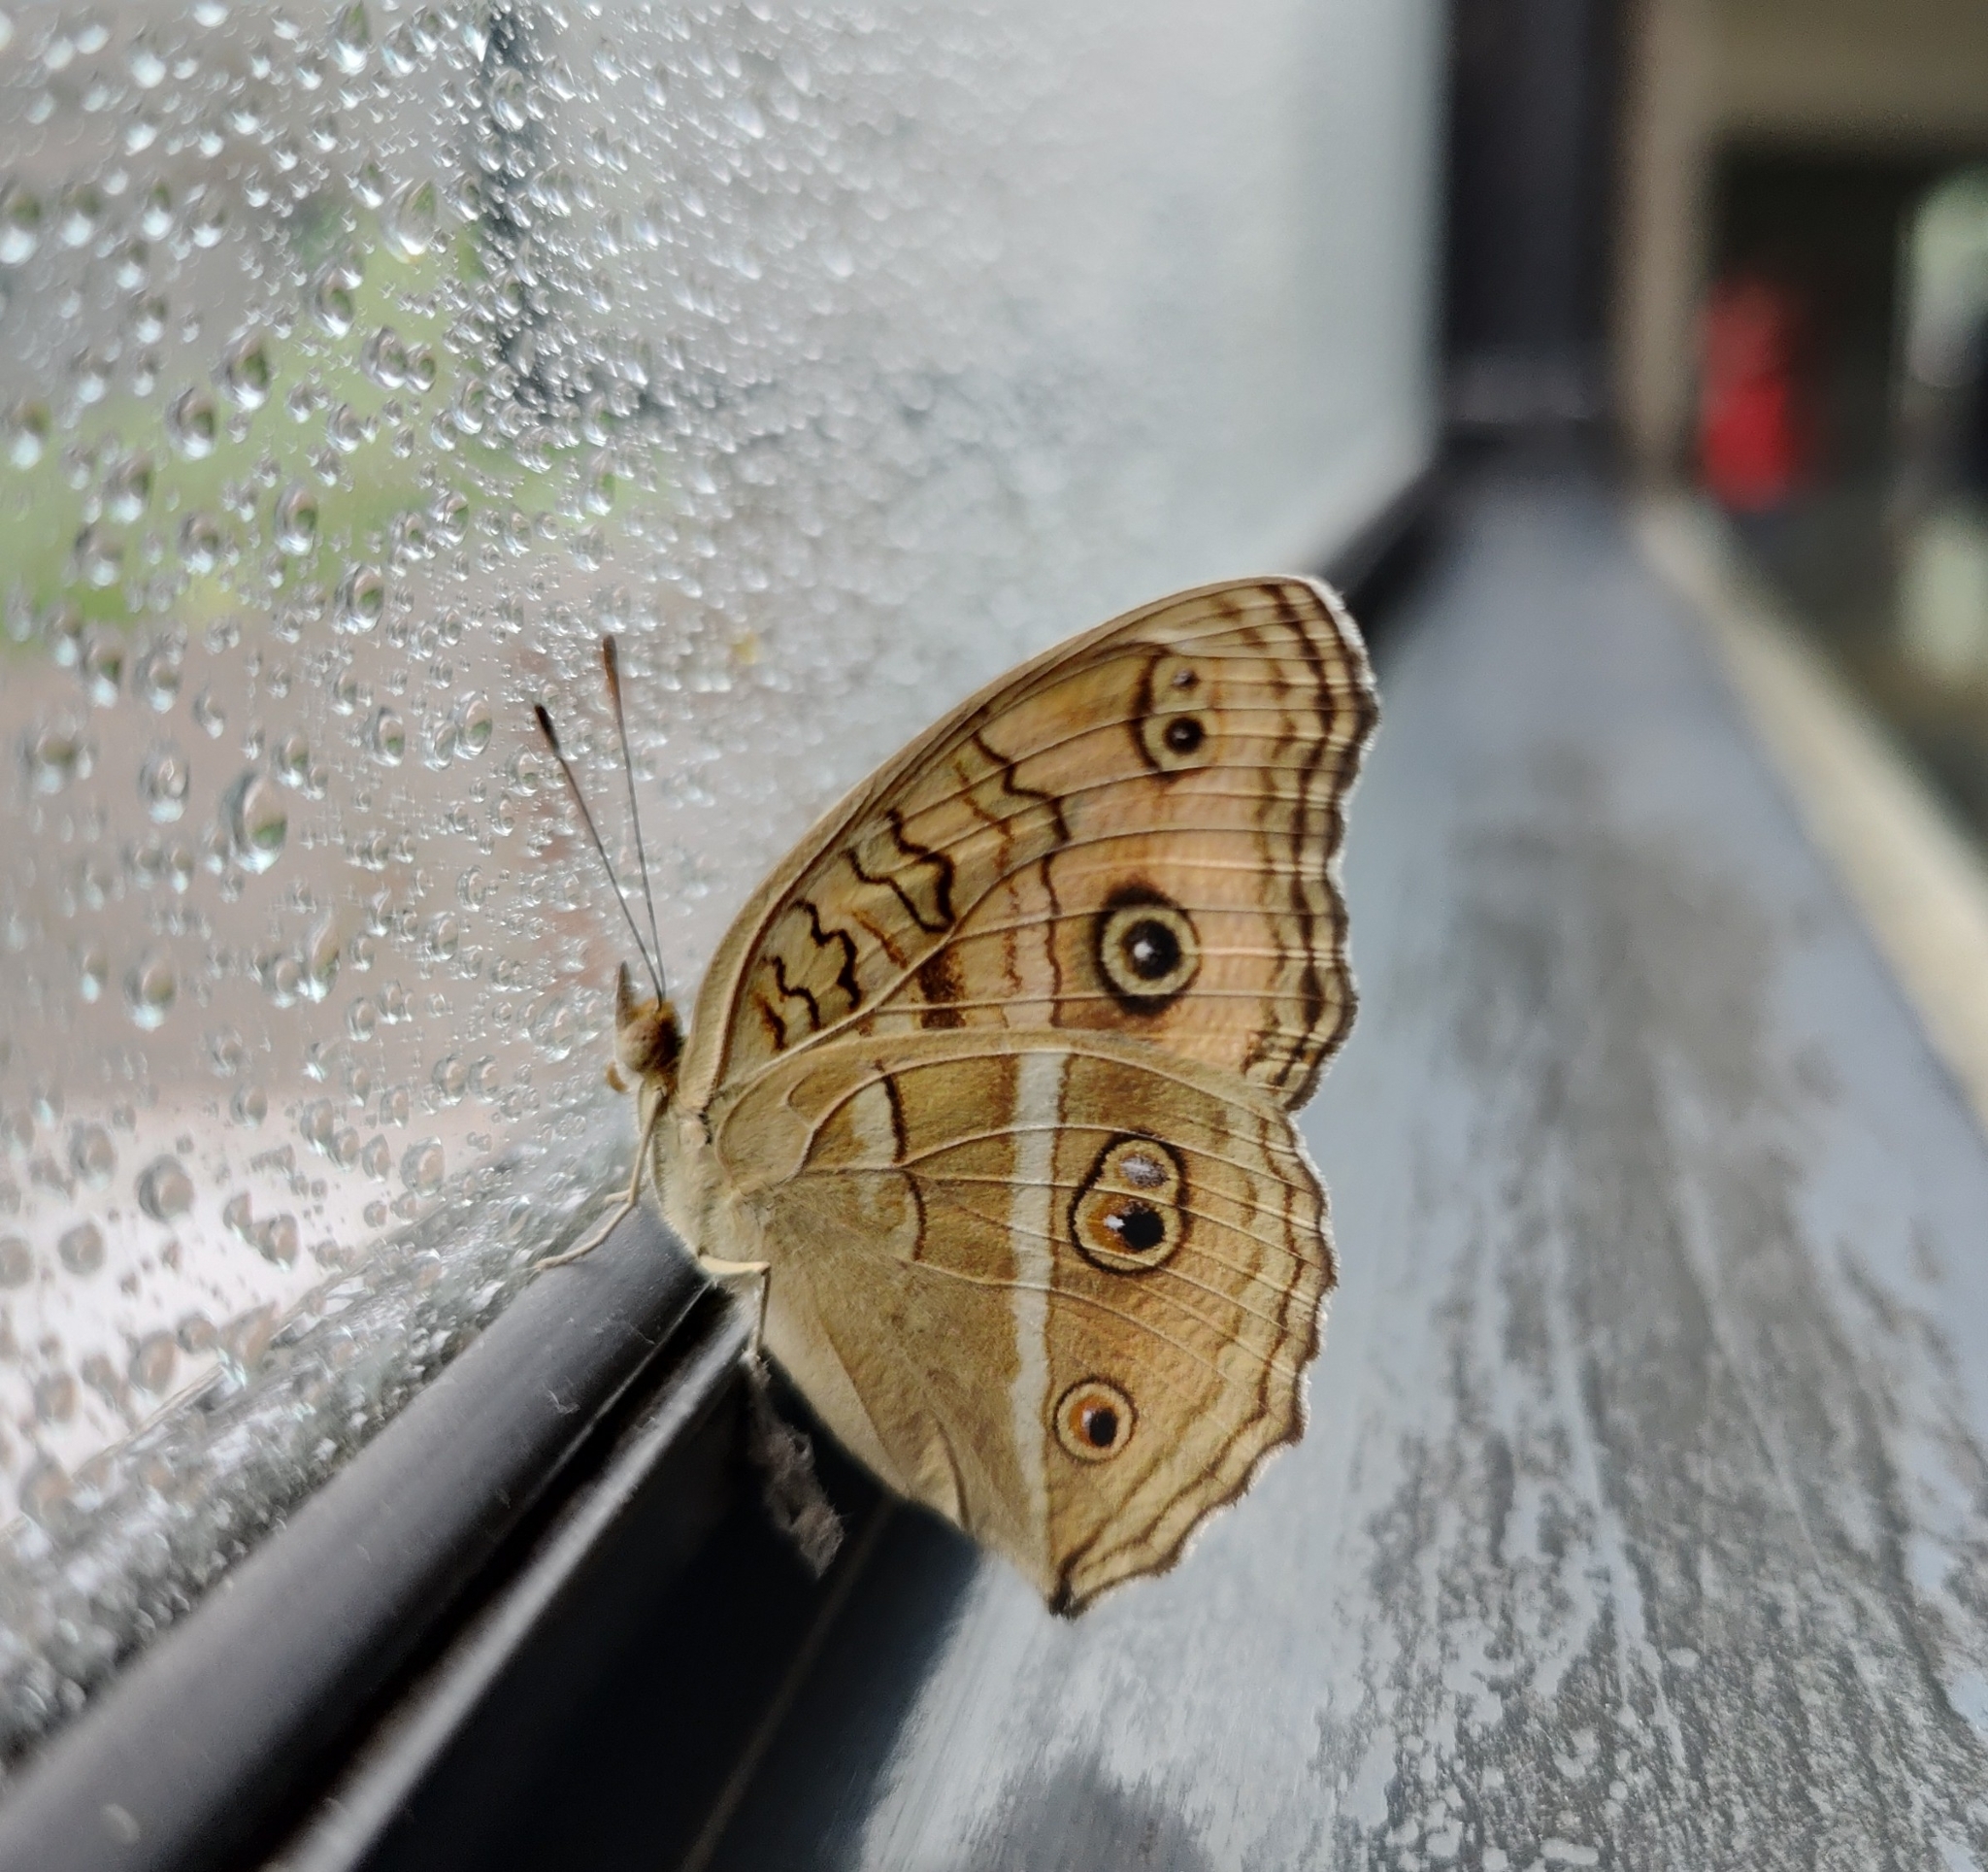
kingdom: Animalia
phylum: Arthropoda
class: Insecta
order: Lepidoptera
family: Nymphalidae
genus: Junonia
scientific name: Junonia almana
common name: Peacock pansy
